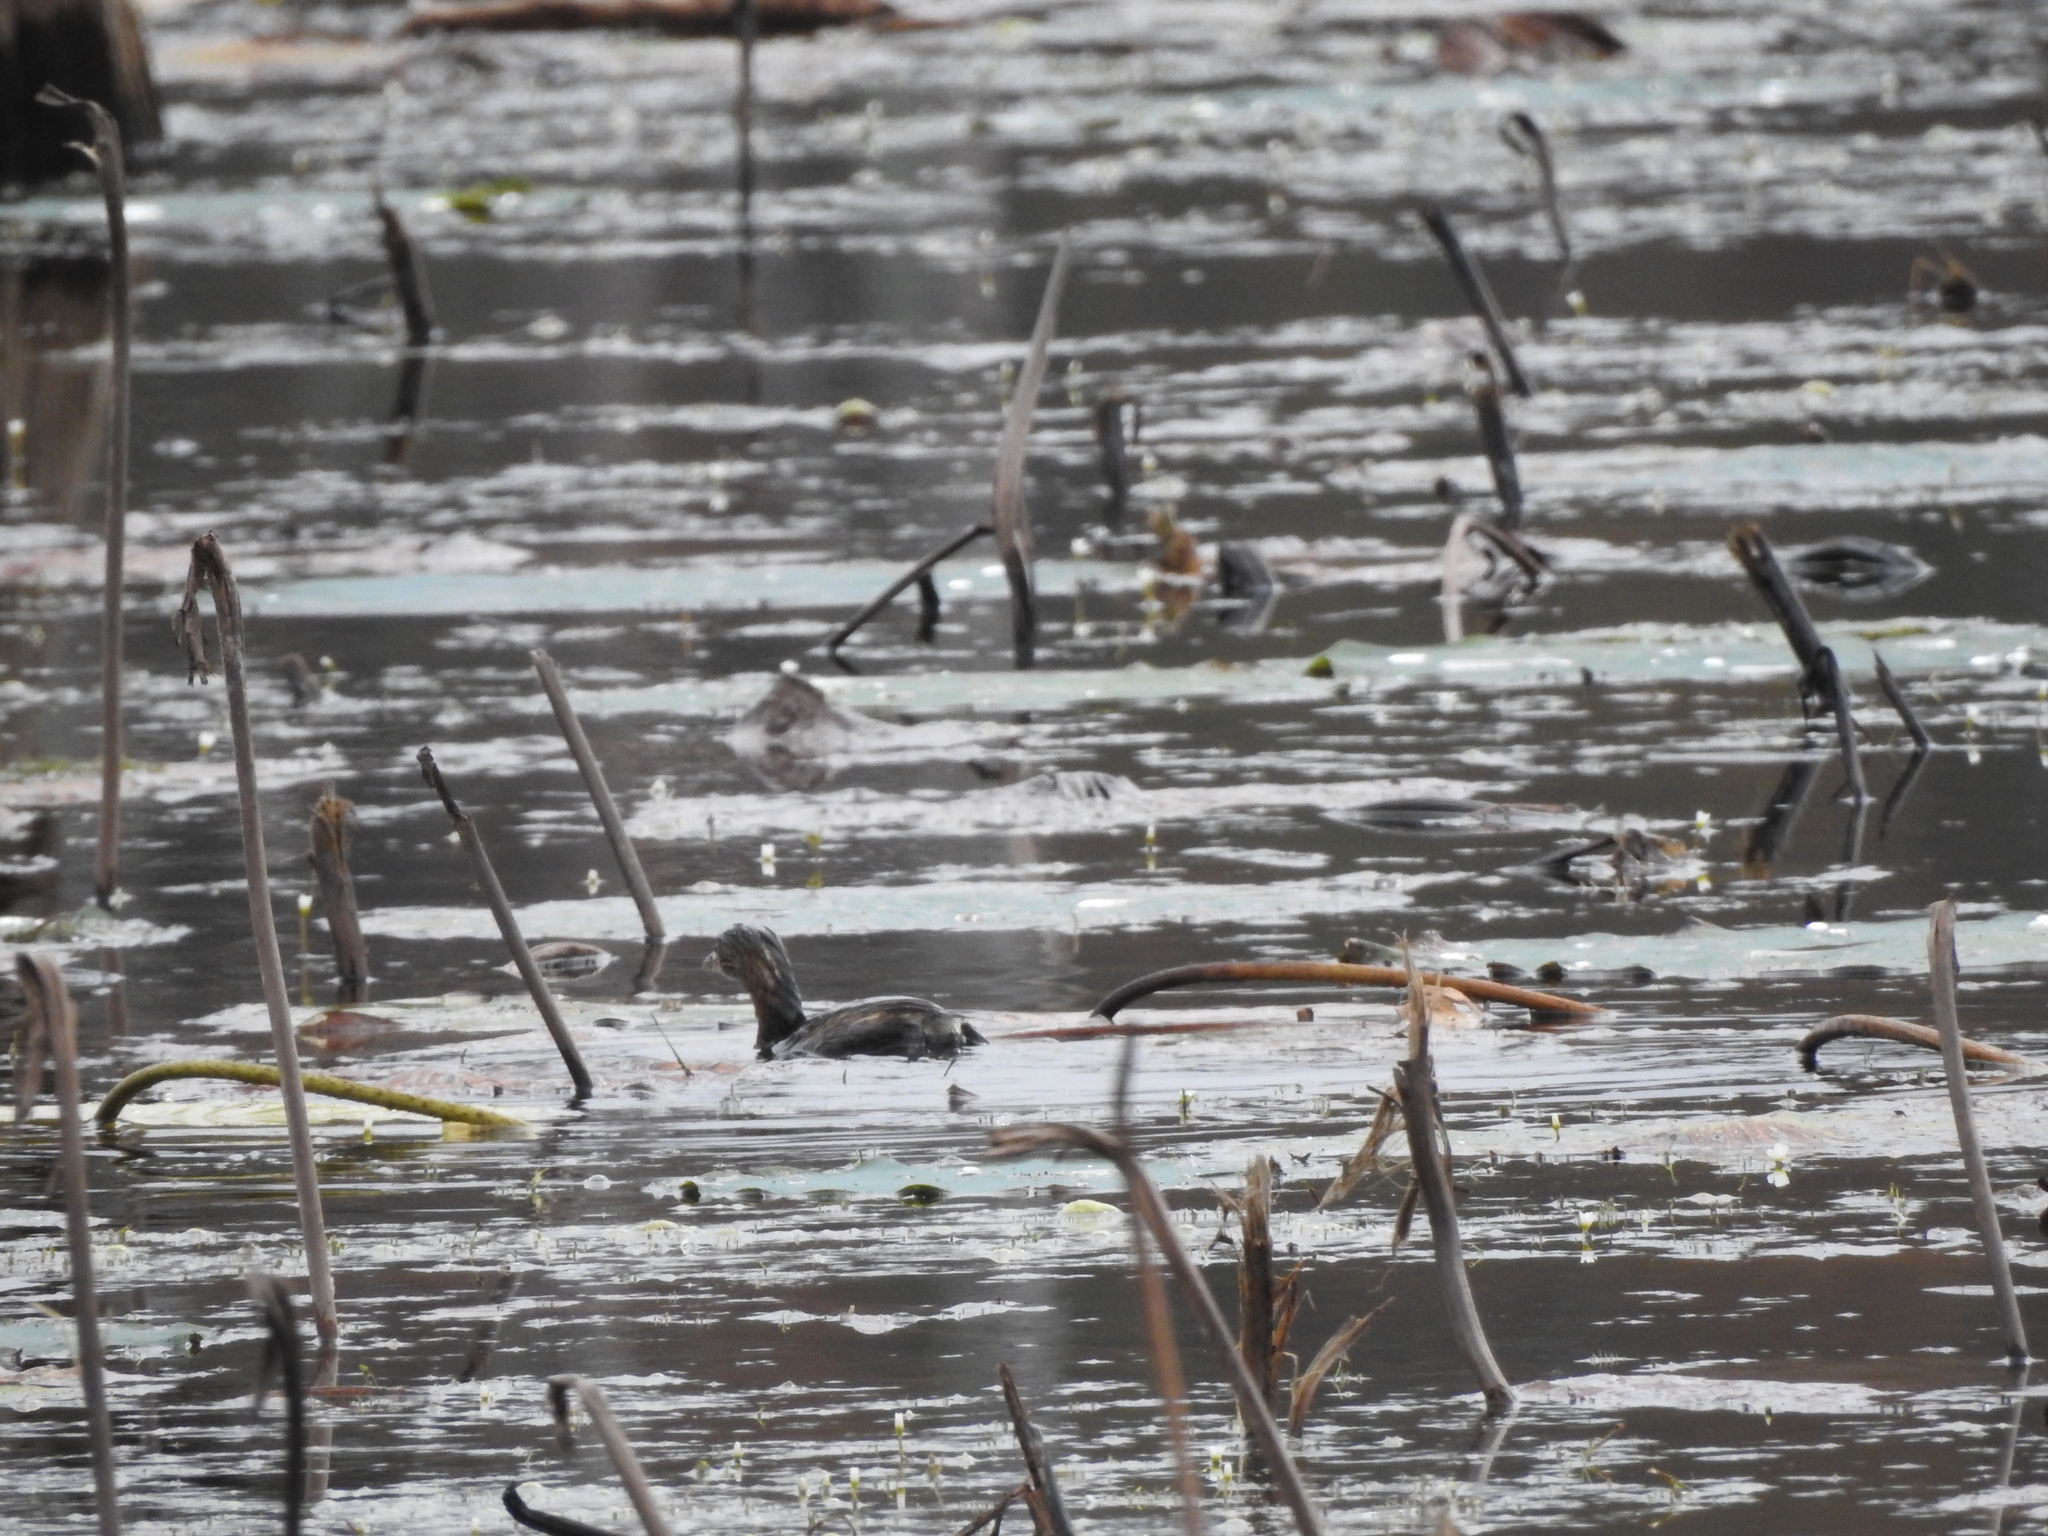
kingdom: Animalia
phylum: Chordata
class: Aves
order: Podicipediformes
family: Podicipedidae
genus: Podilymbus
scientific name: Podilymbus podiceps
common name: Pied-billed grebe
